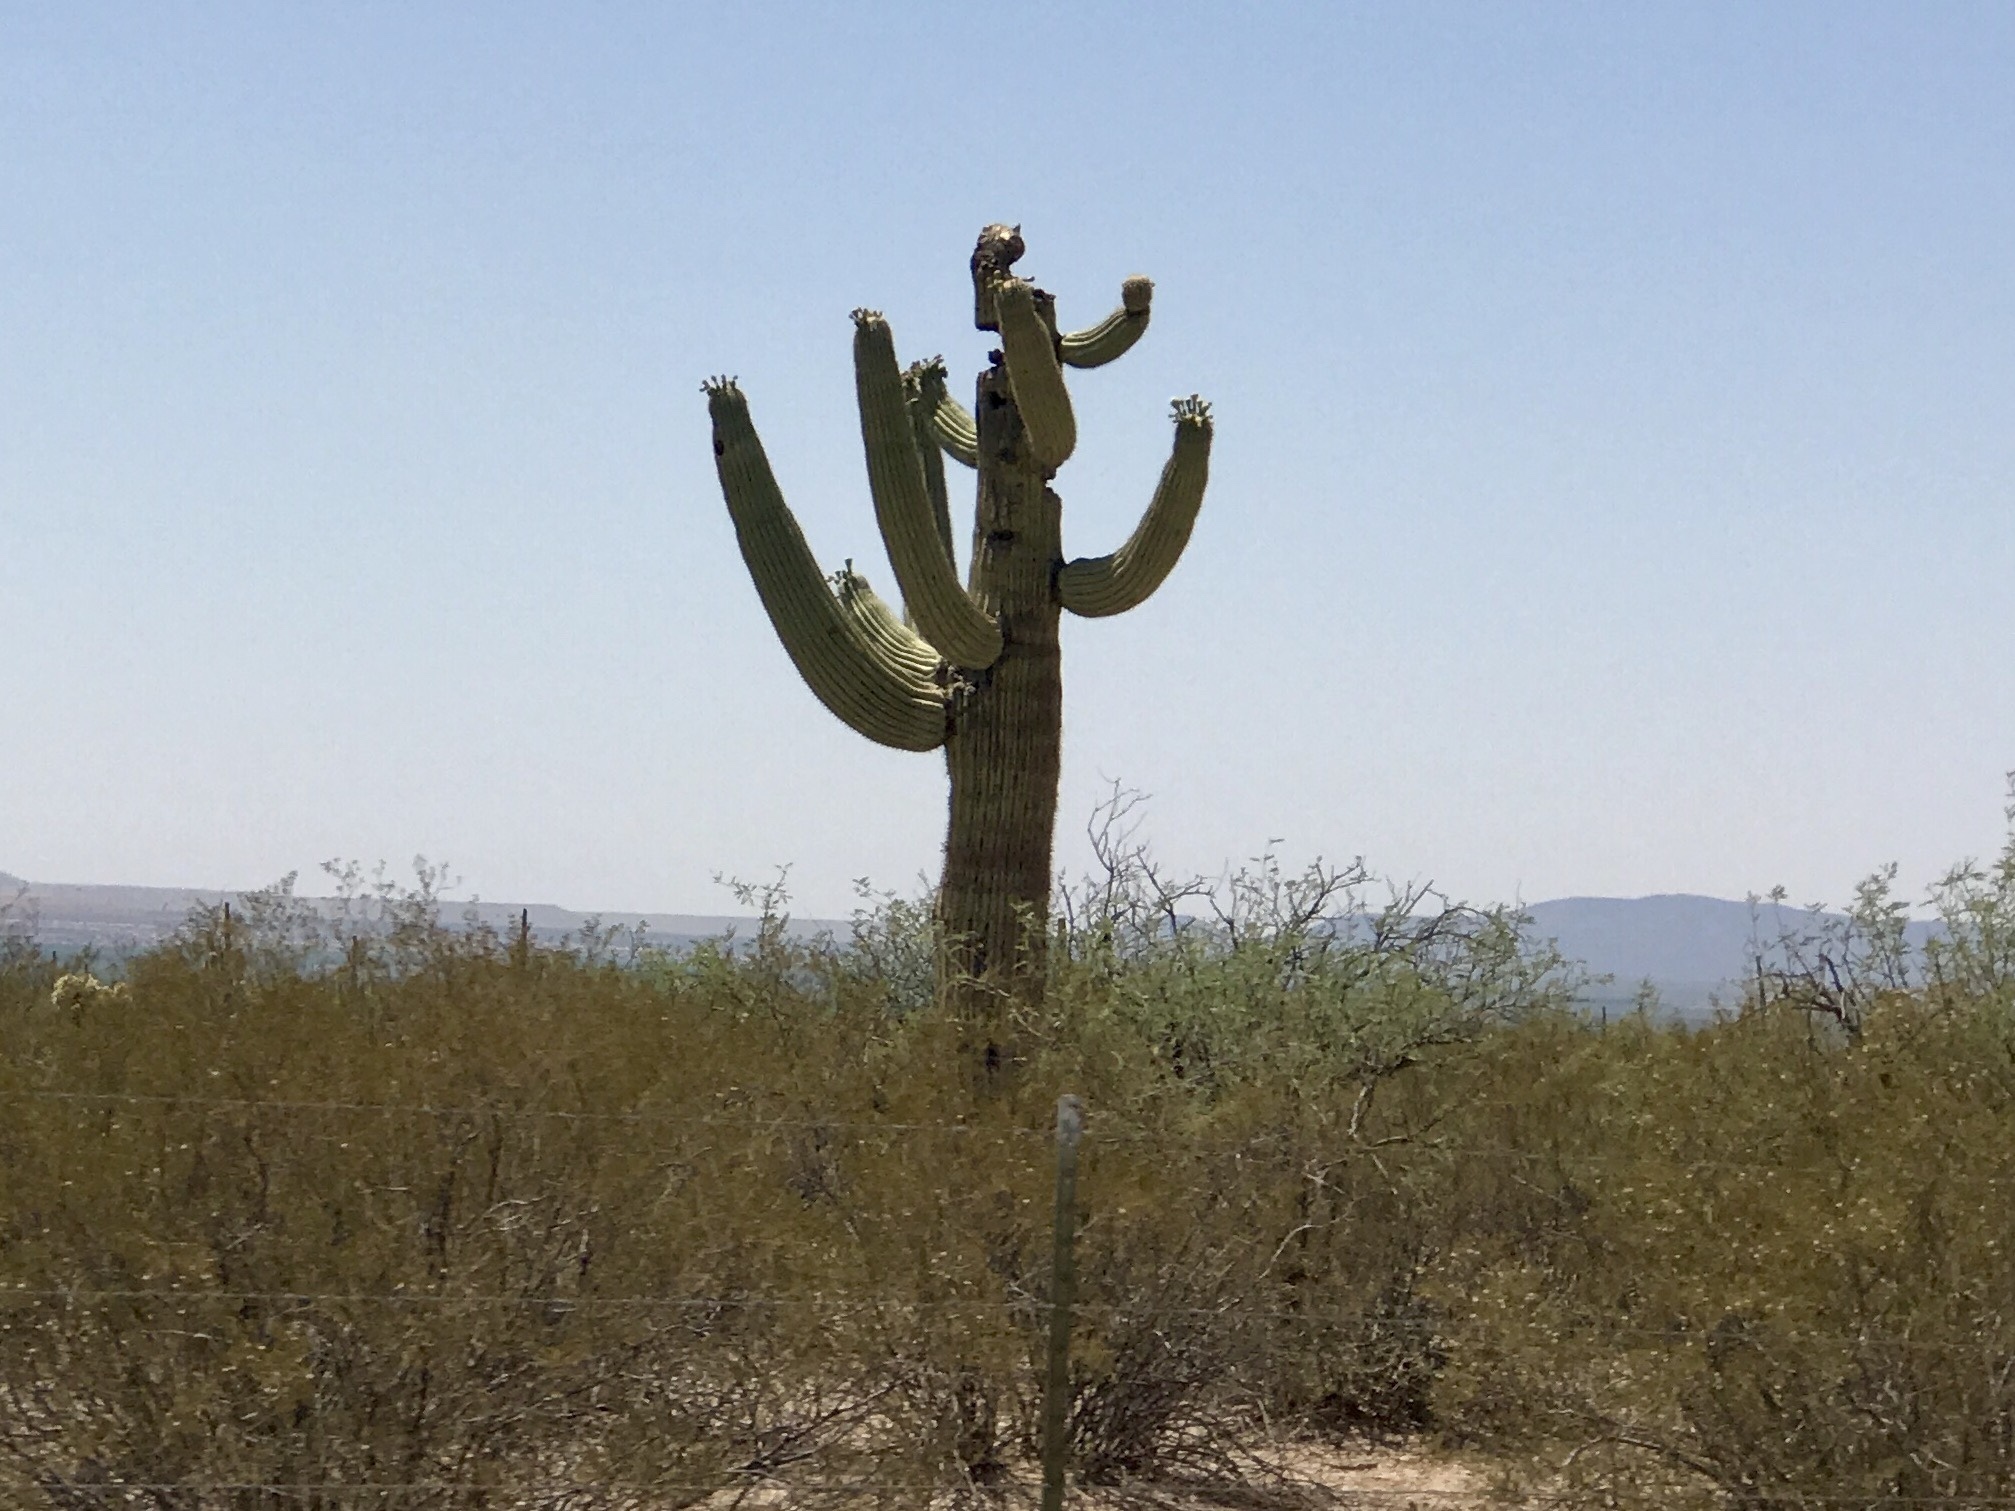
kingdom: Plantae
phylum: Tracheophyta
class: Magnoliopsida
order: Caryophyllales
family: Cactaceae
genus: Carnegiea
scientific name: Carnegiea gigantea
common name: Saguaro
